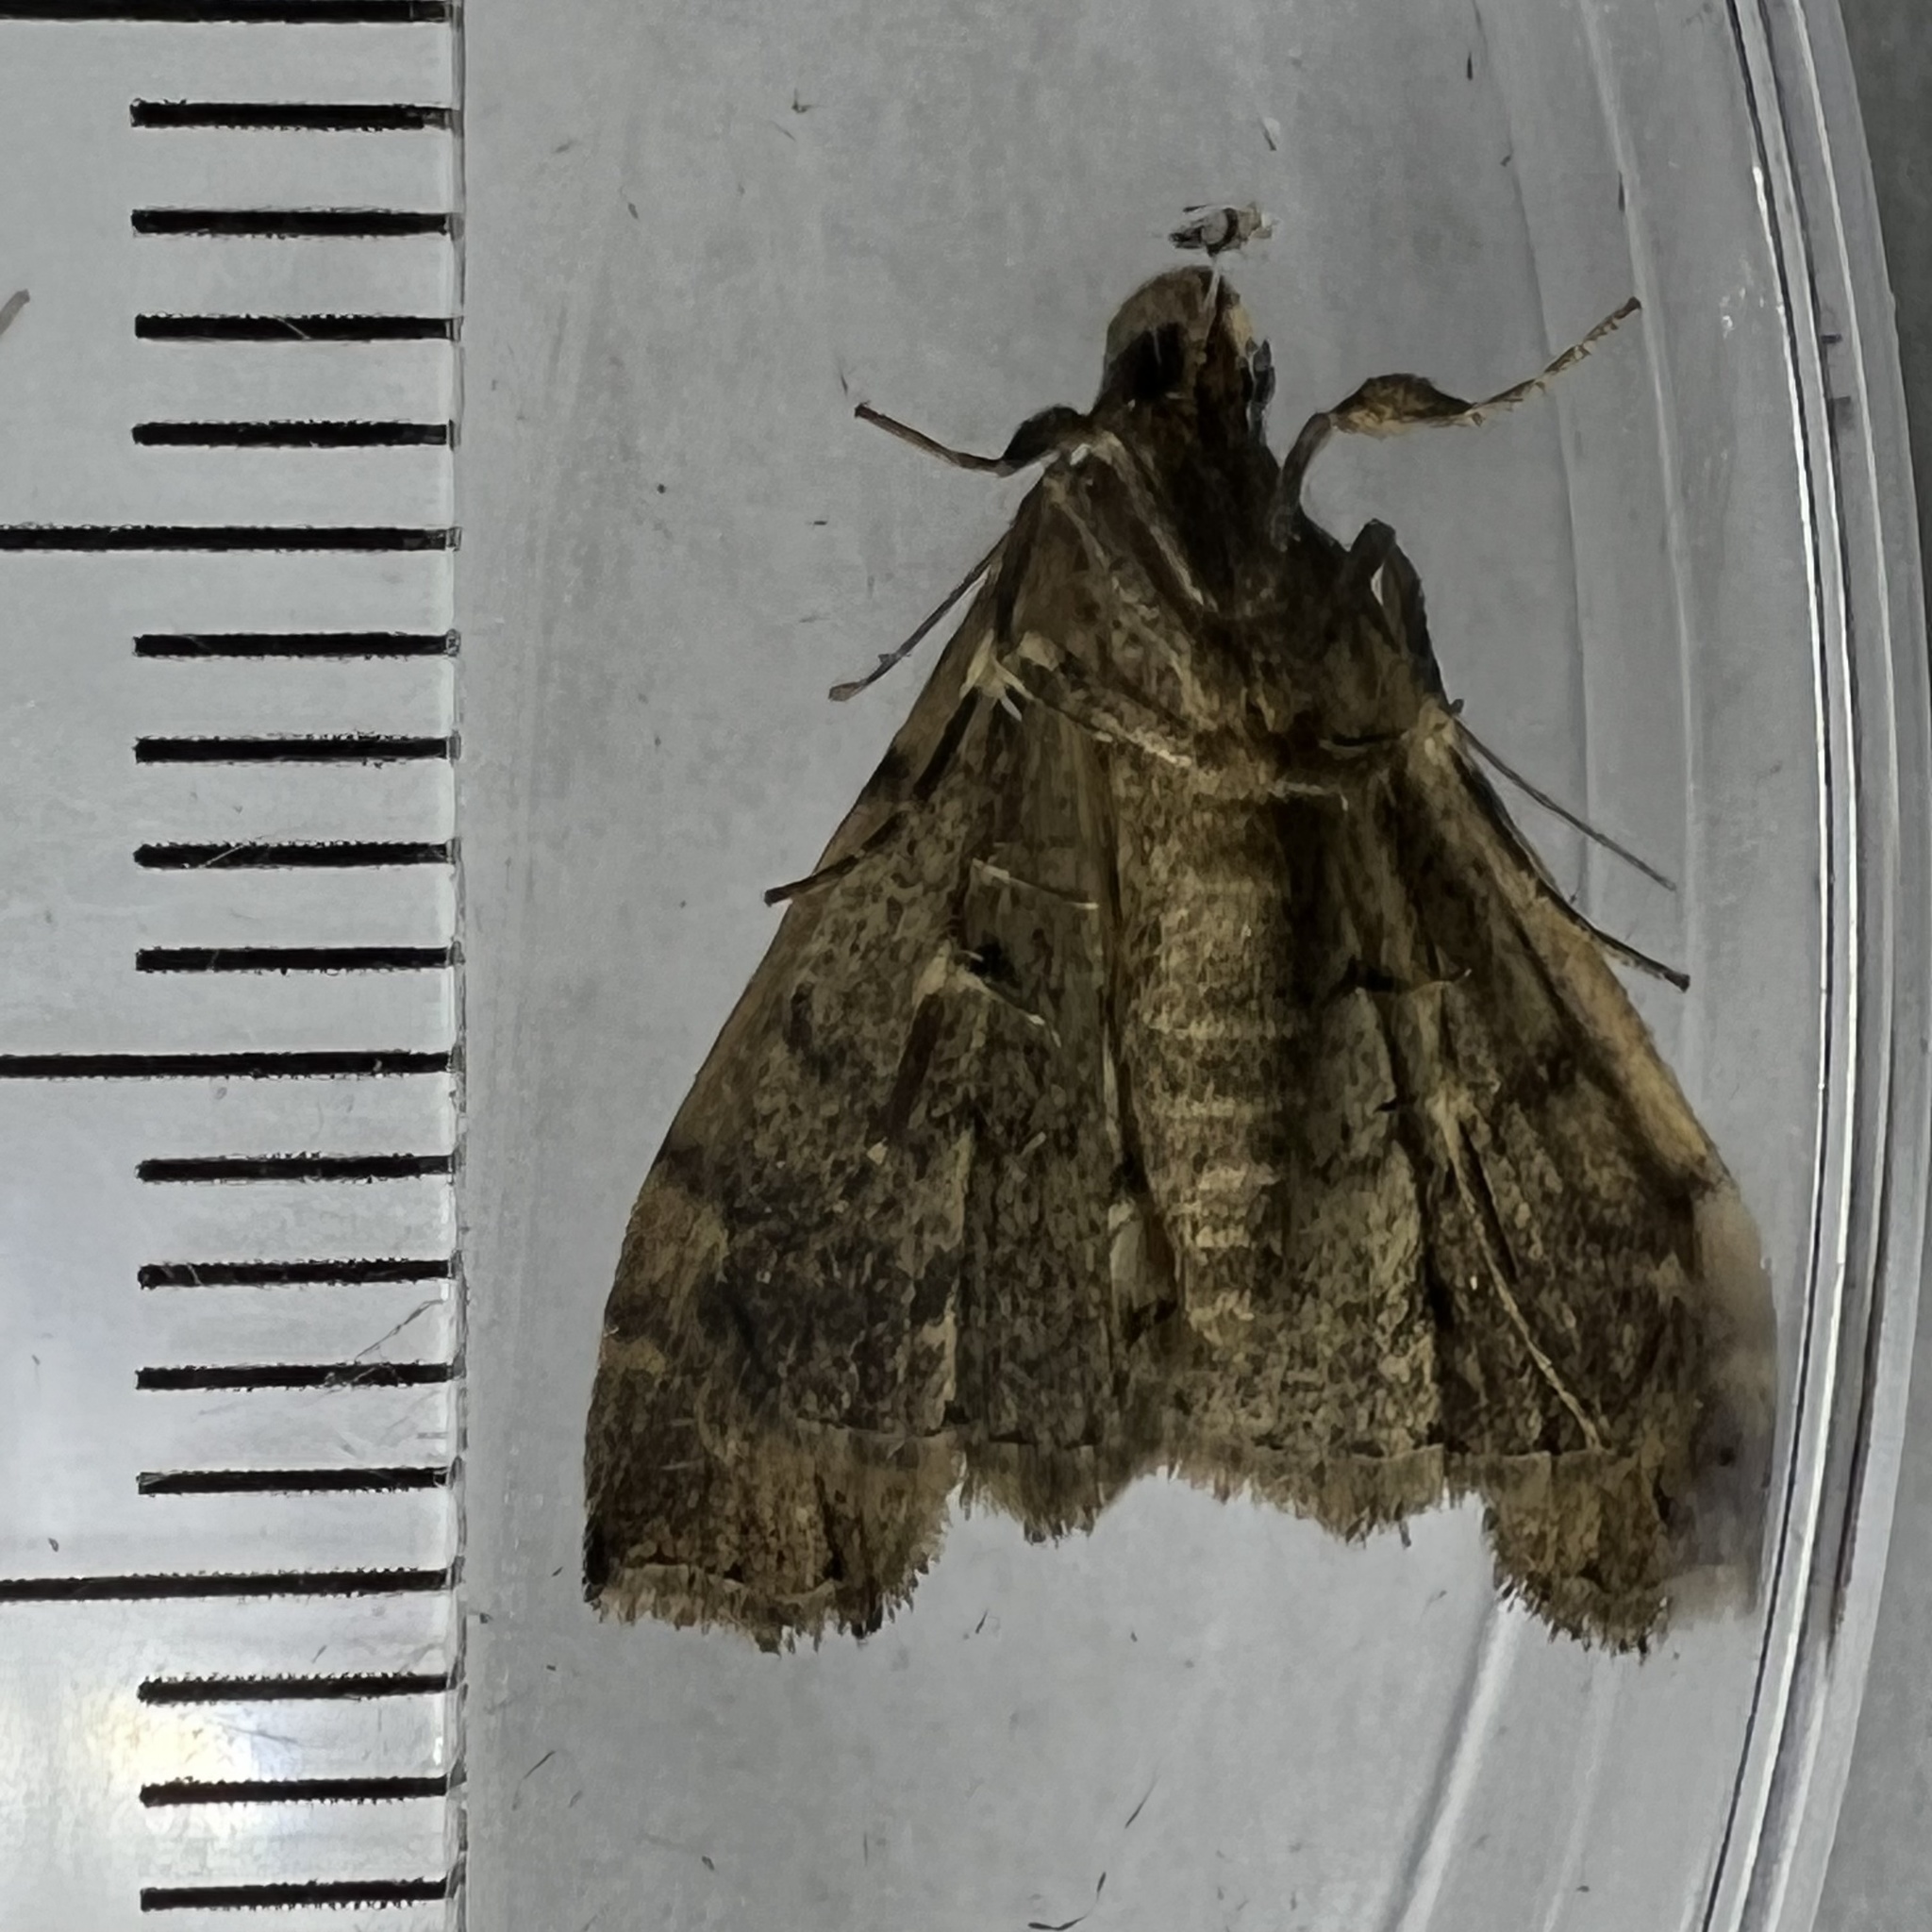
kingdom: Animalia
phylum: Arthropoda
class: Insecta
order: Lepidoptera
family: Erebidae
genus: Lascoria
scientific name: Lascoria ambigualis
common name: Ambiguous moth
